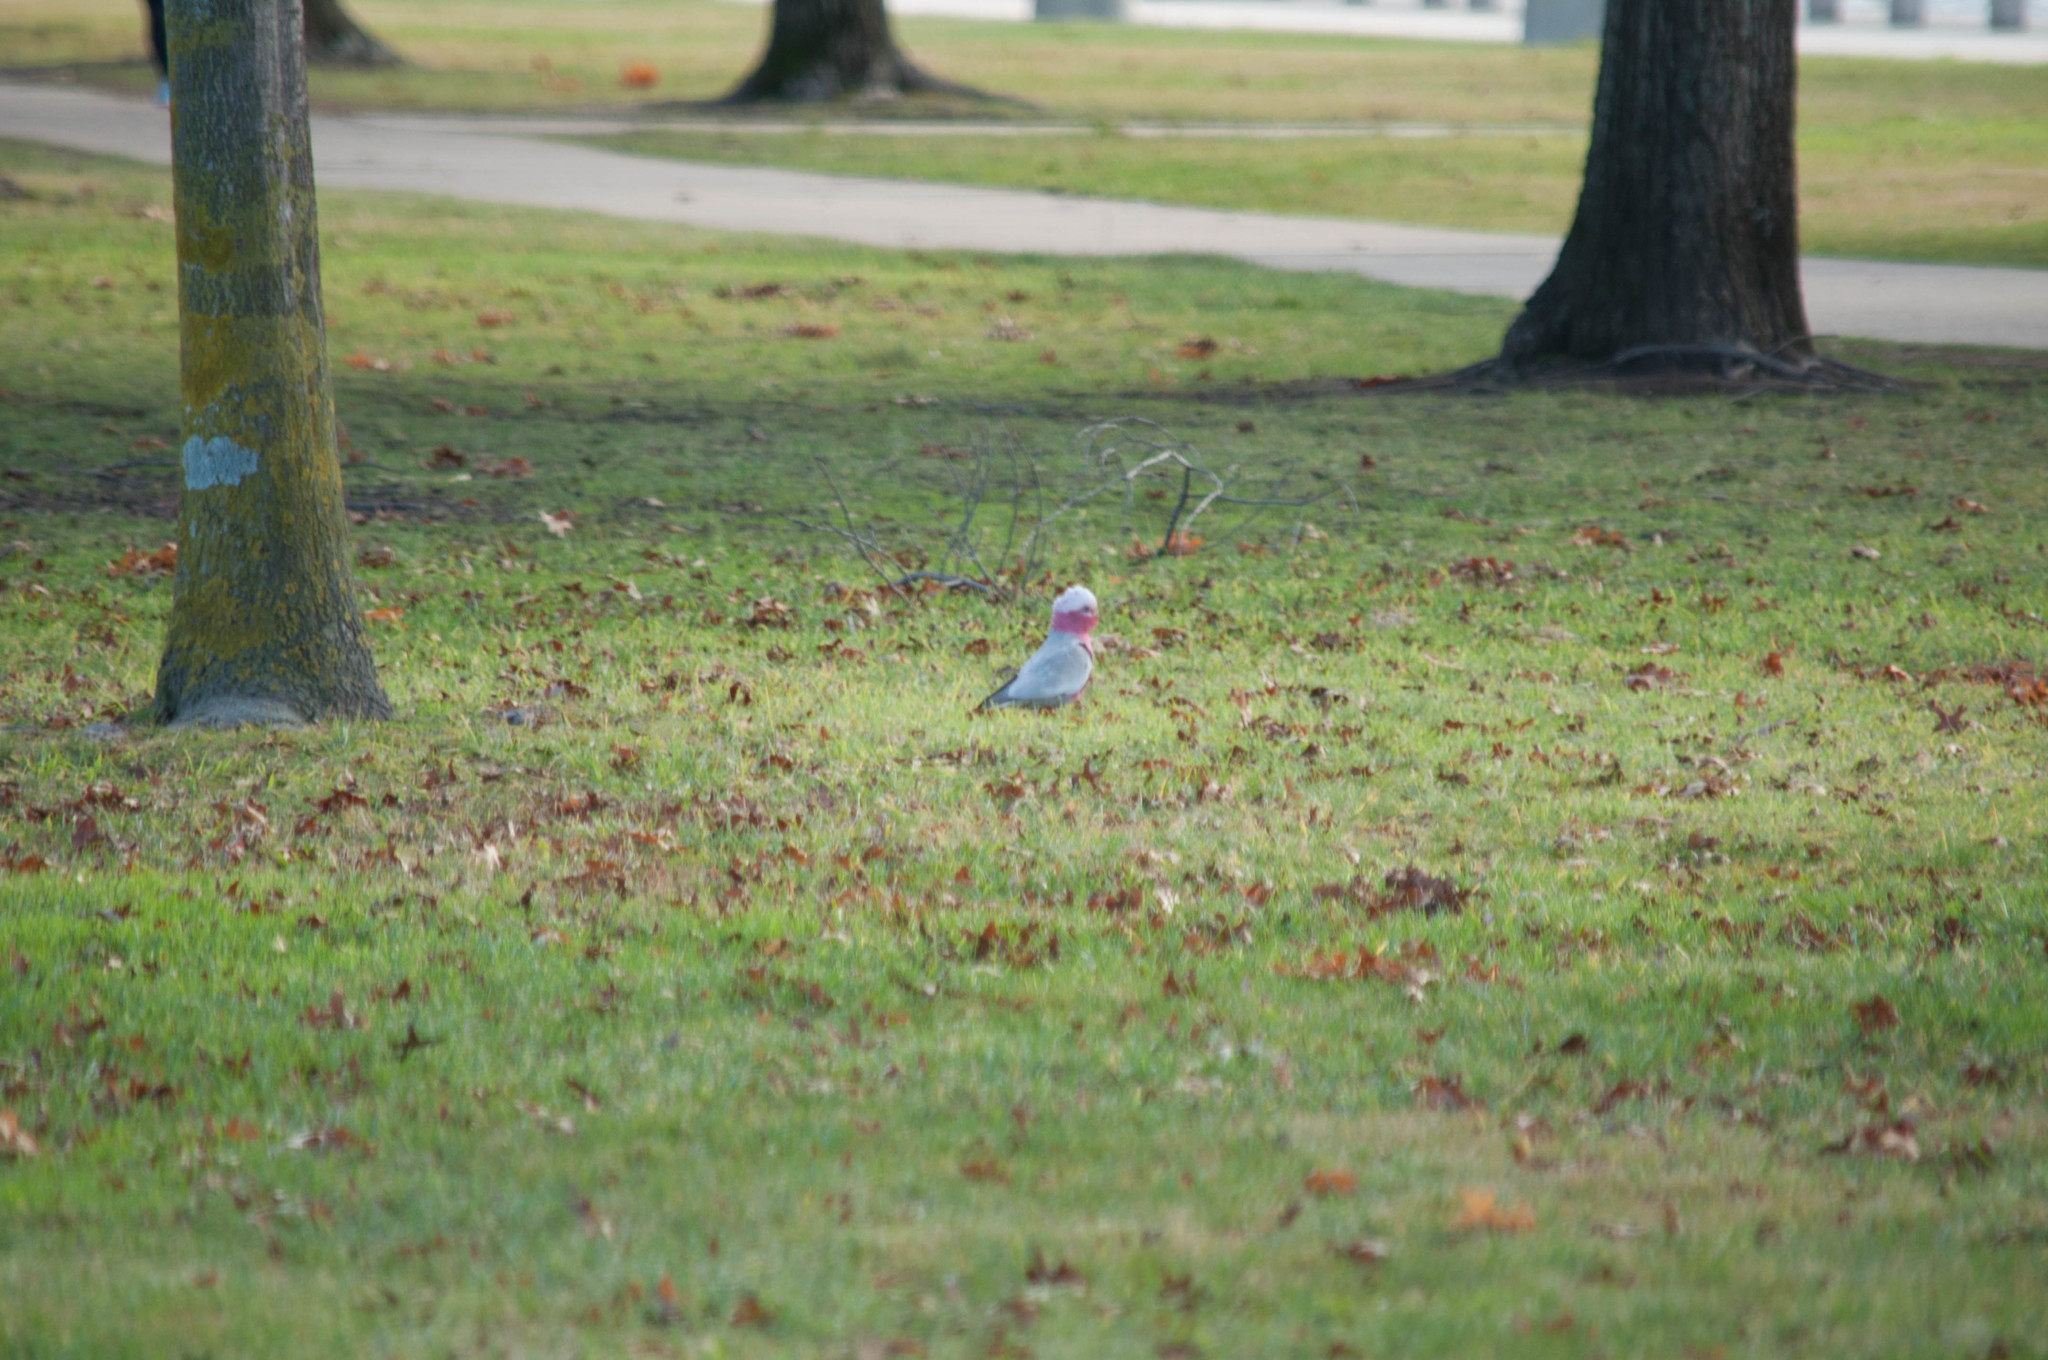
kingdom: Animalia
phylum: Chordata
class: Aves
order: Psittaciformes
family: Psittacidae
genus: Eolophus
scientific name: Eolophus roseicapilla
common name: Galah
